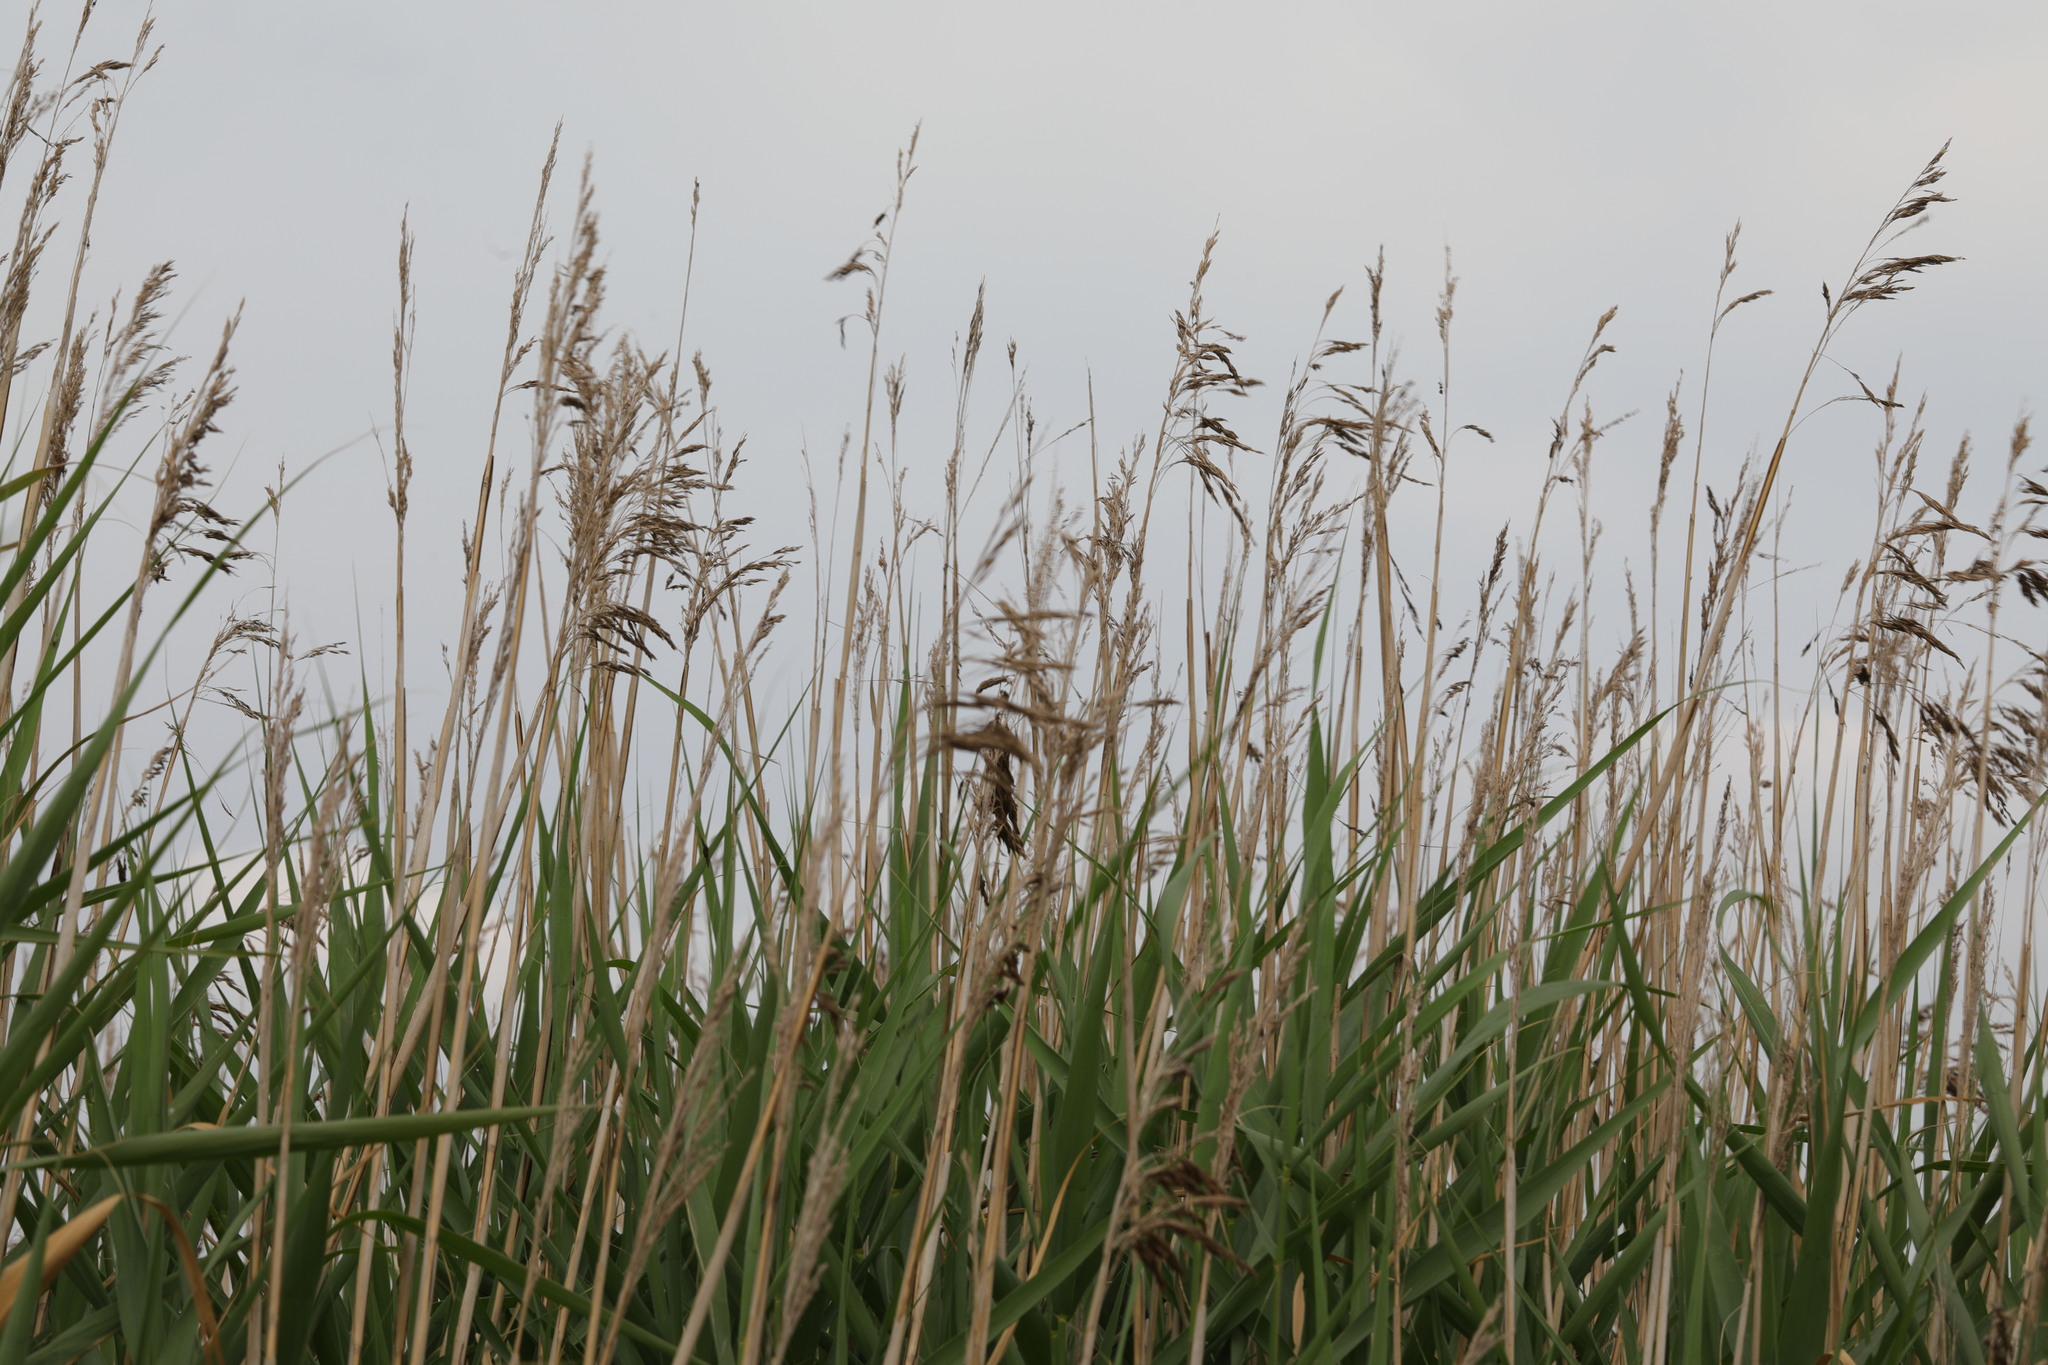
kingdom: Plantae
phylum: Tracheophyta
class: Liliopsida
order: Poales
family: Poaceae
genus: Phragmites
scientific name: Phragmites australis
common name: Common reed
